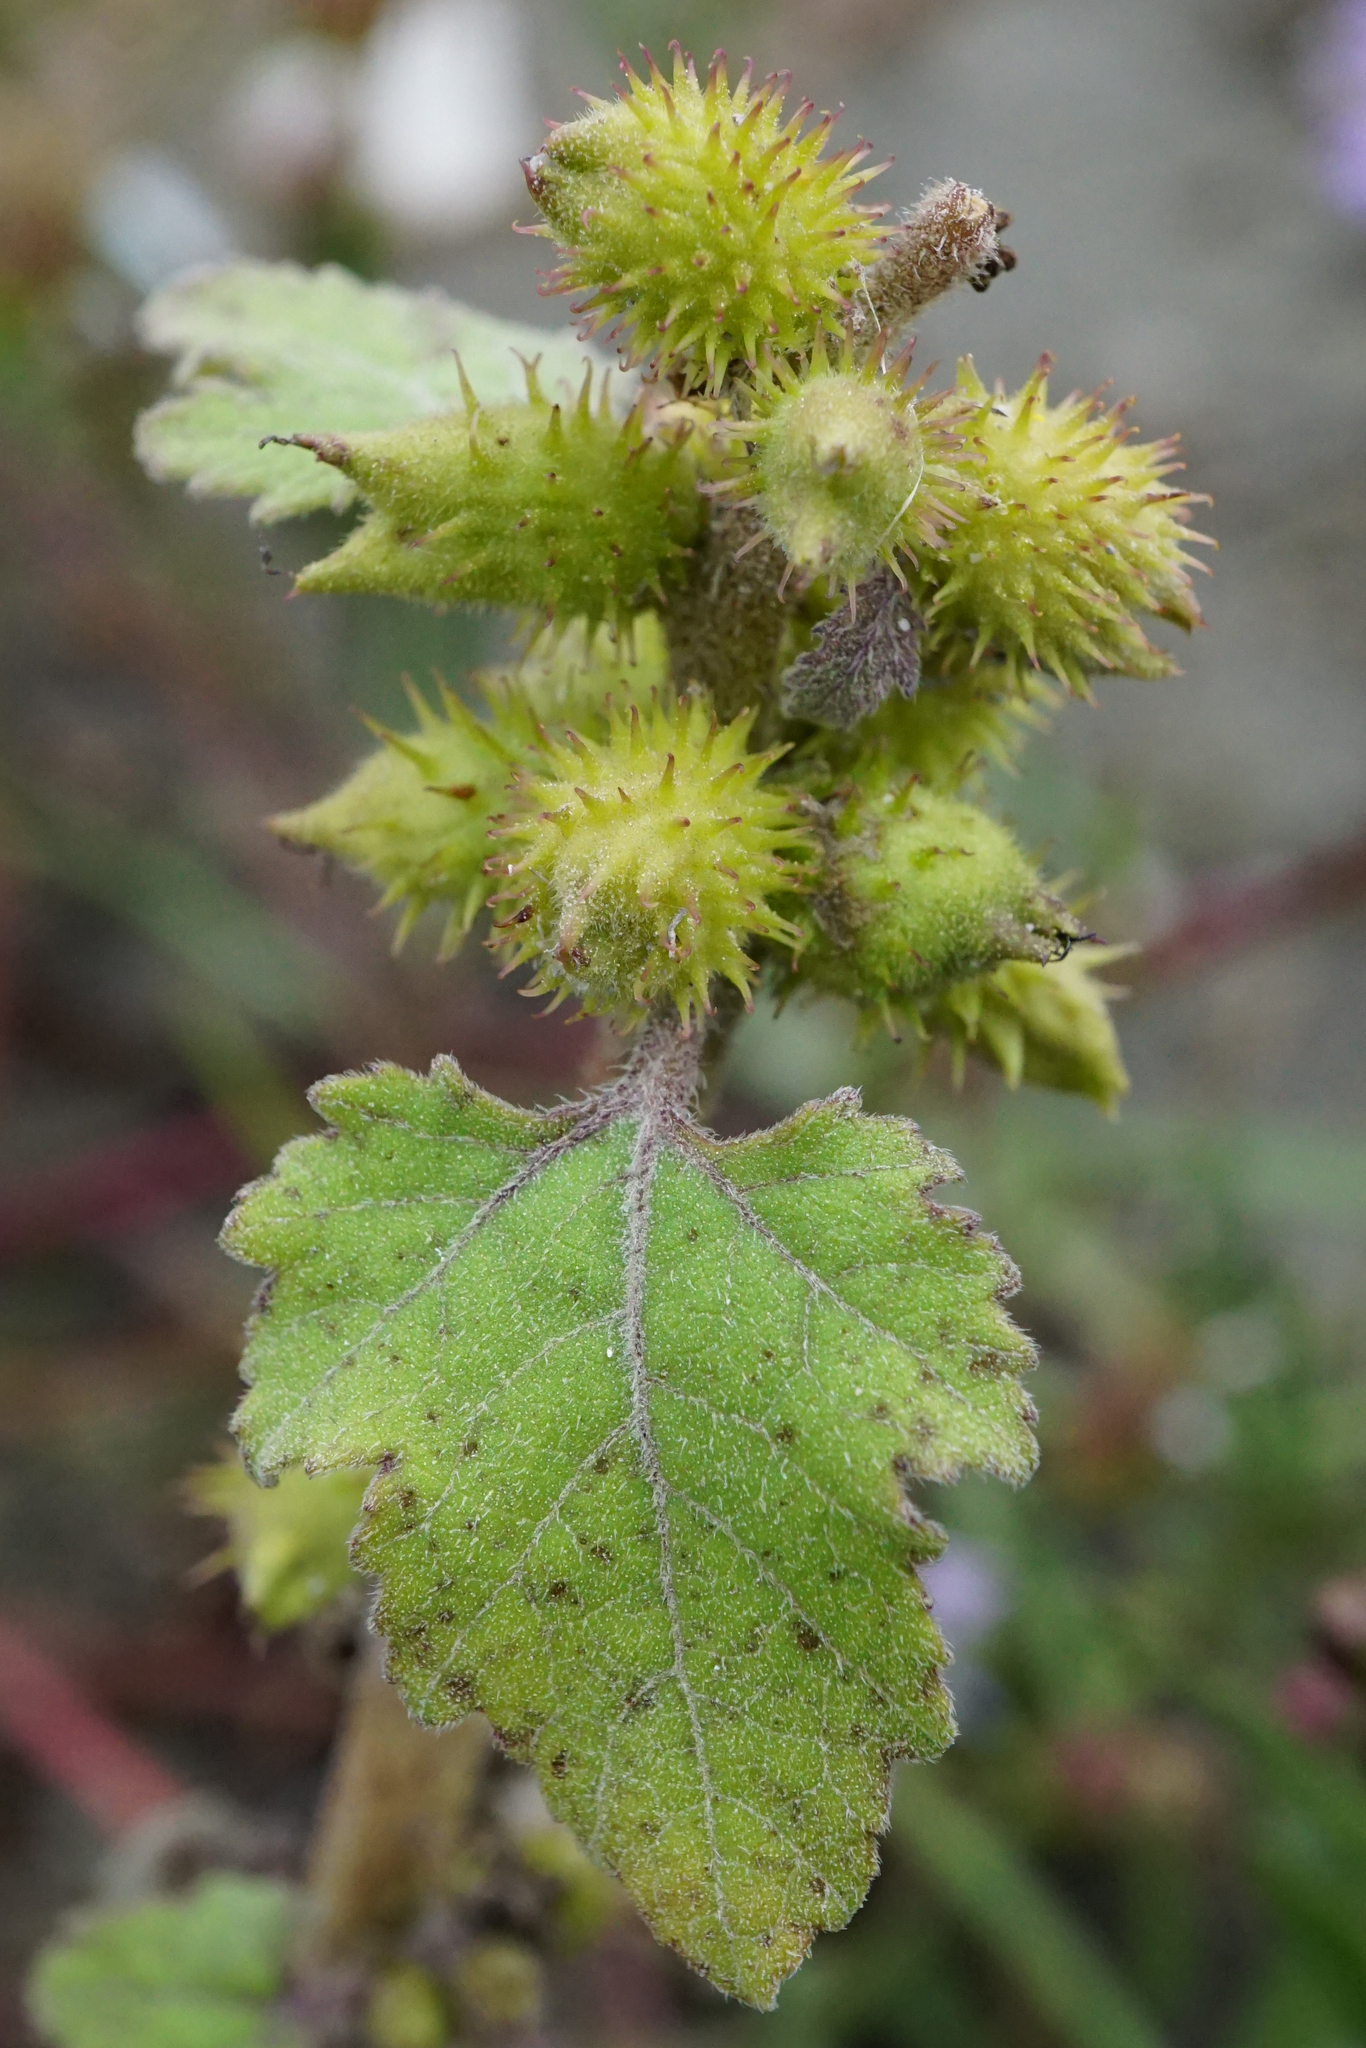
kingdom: Plantae
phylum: Tracheophyta
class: Magnoliopsida
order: Asterales
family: Asteraceae
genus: Xanthium
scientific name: Xanthium strumarium
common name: Rough cocklebur
